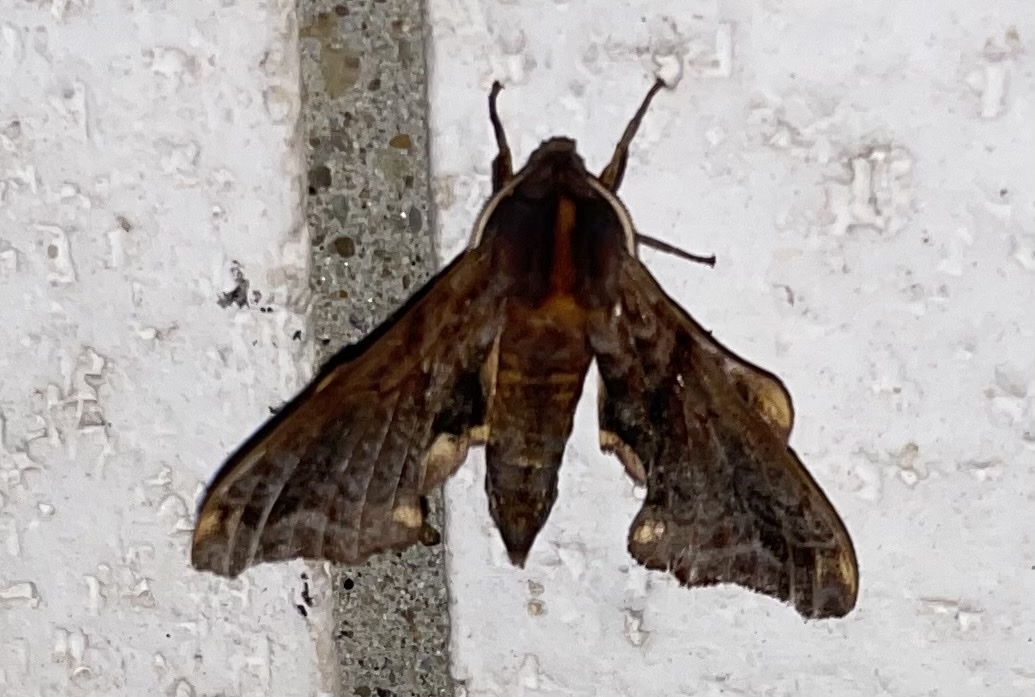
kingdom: Animalia
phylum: Arthropoda
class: Insecta
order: Lepidoptera
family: Sphingidae
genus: Paonias
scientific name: Paonias myops
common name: Small-eyed sphinx
